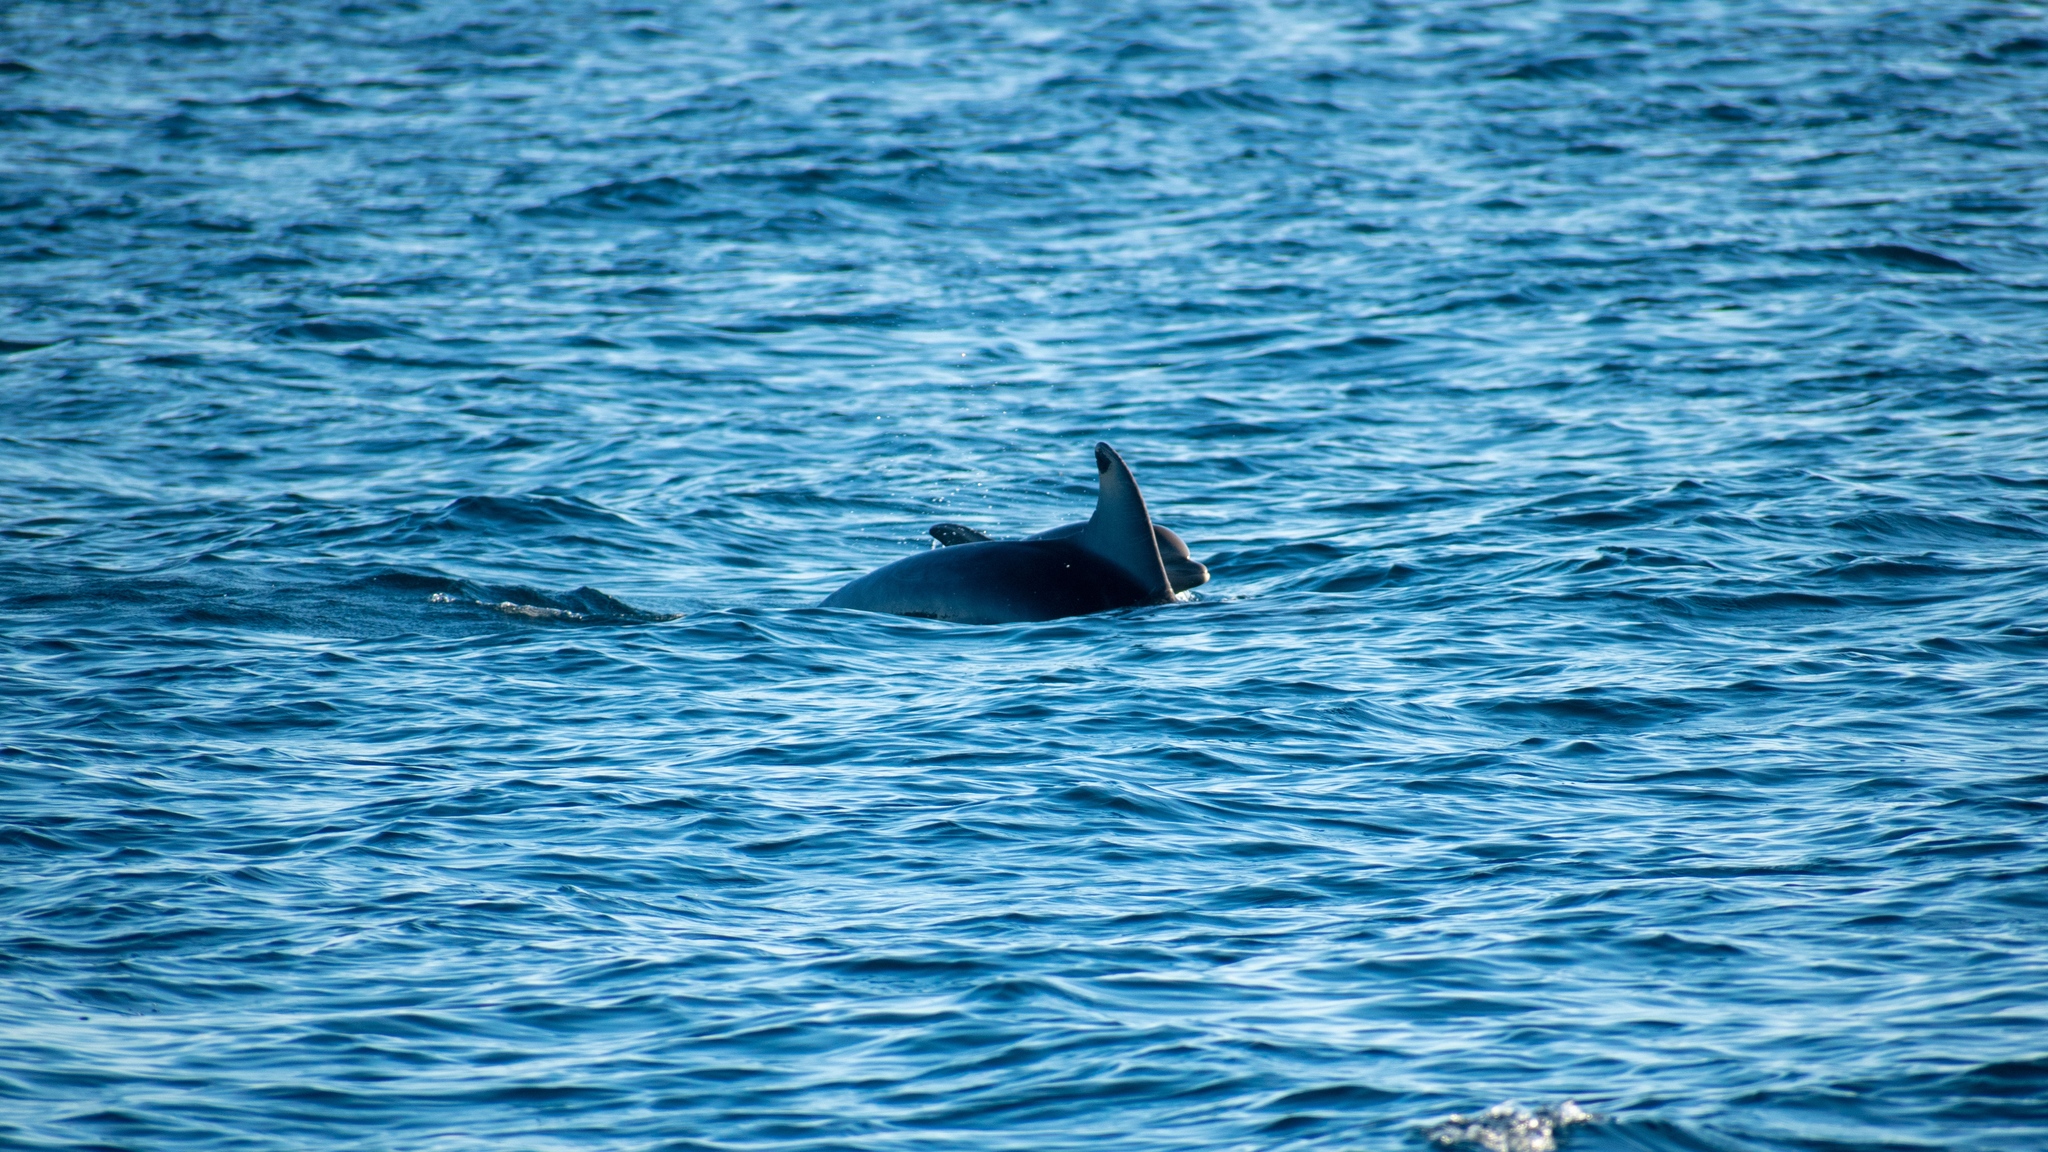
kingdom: Animalia
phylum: Chordata
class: Mammalia
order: Cetacea
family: Delphinidae
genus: Tursiops
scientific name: Tursiops truncatus
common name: Bottlenose dolphin
